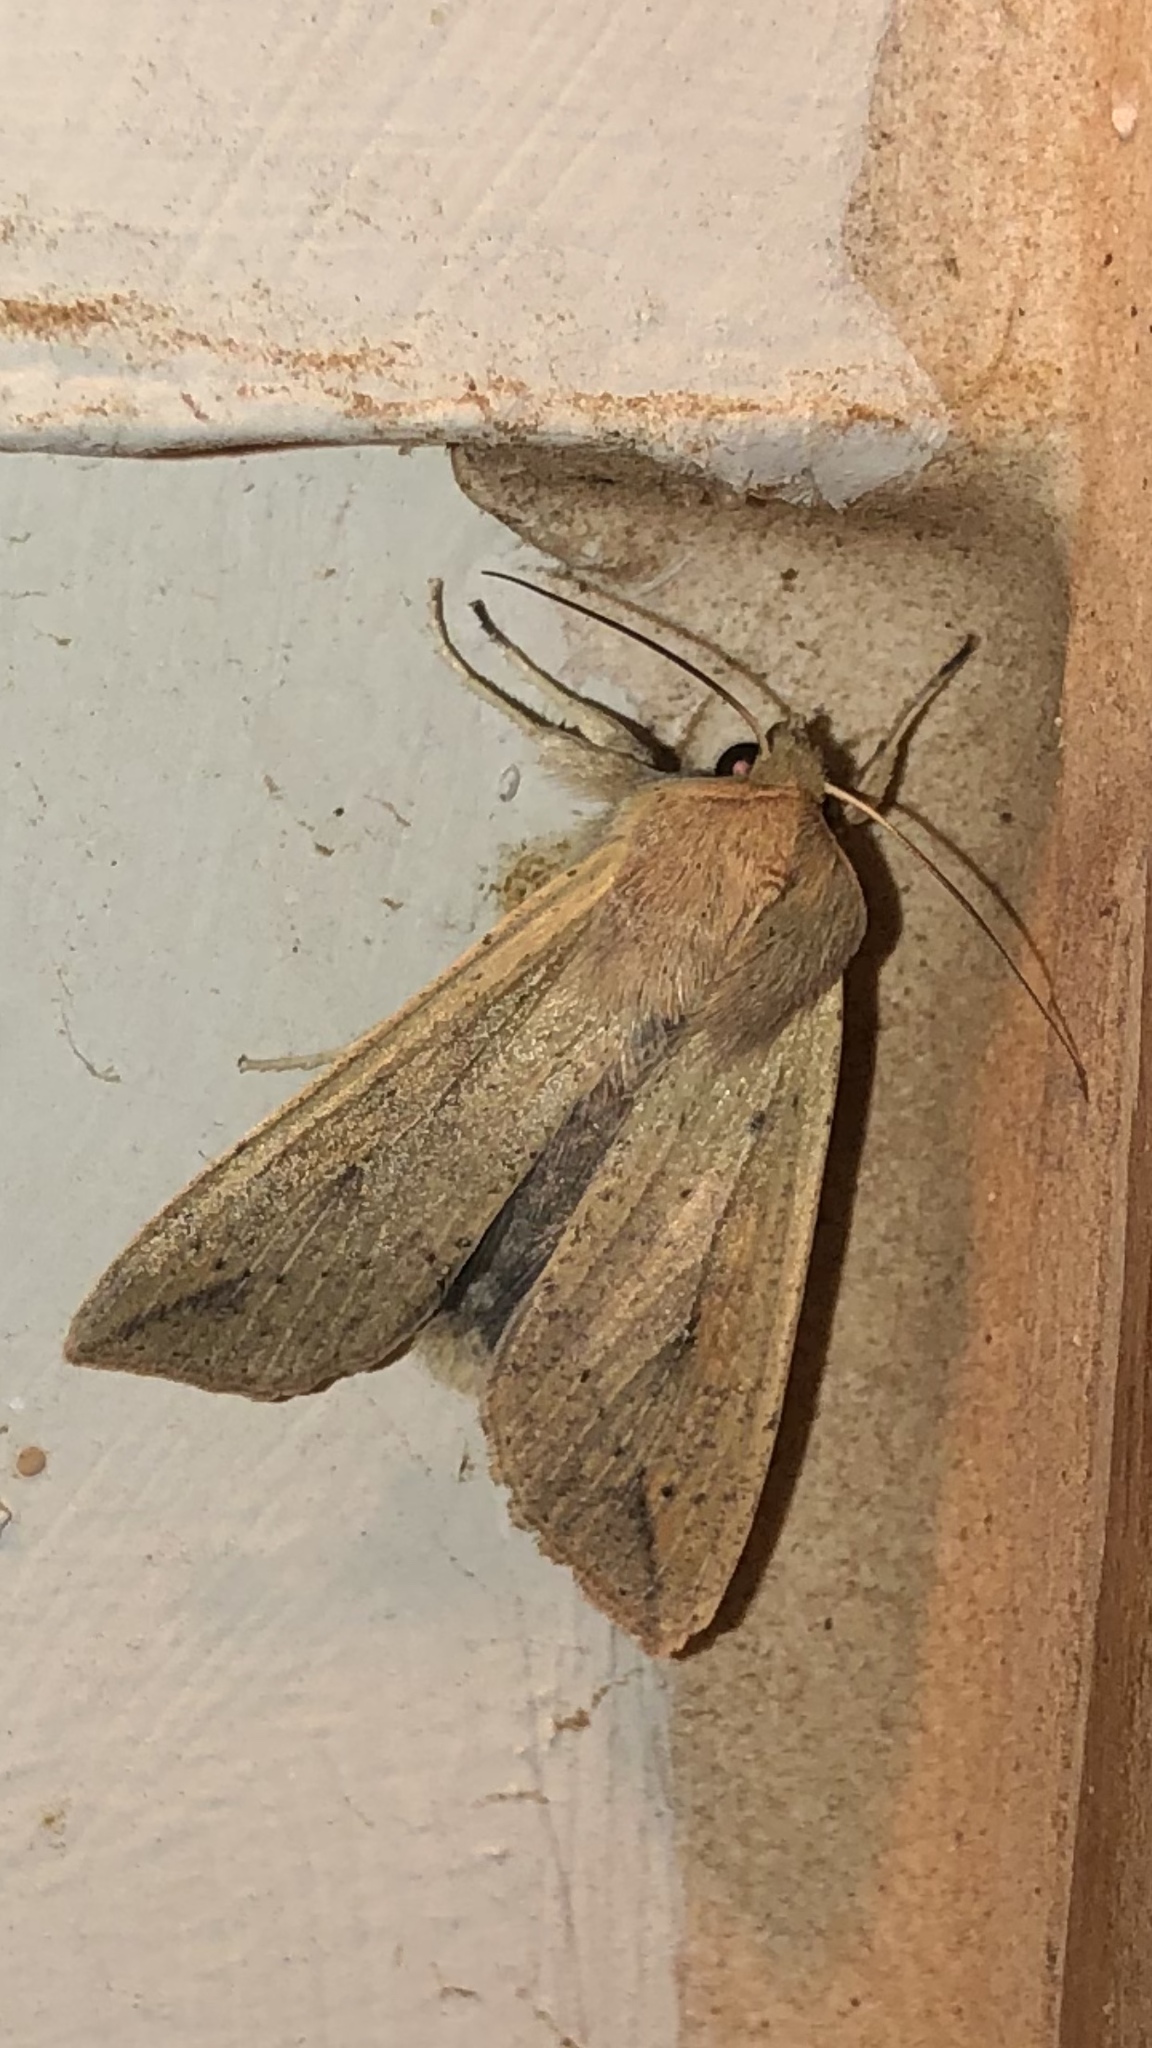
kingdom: Animalia
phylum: Arthropoda
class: Insecta
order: Lepidoptera
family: Noctuidae
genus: Mythimna
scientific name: Mythimna unipuncta
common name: White-speck
